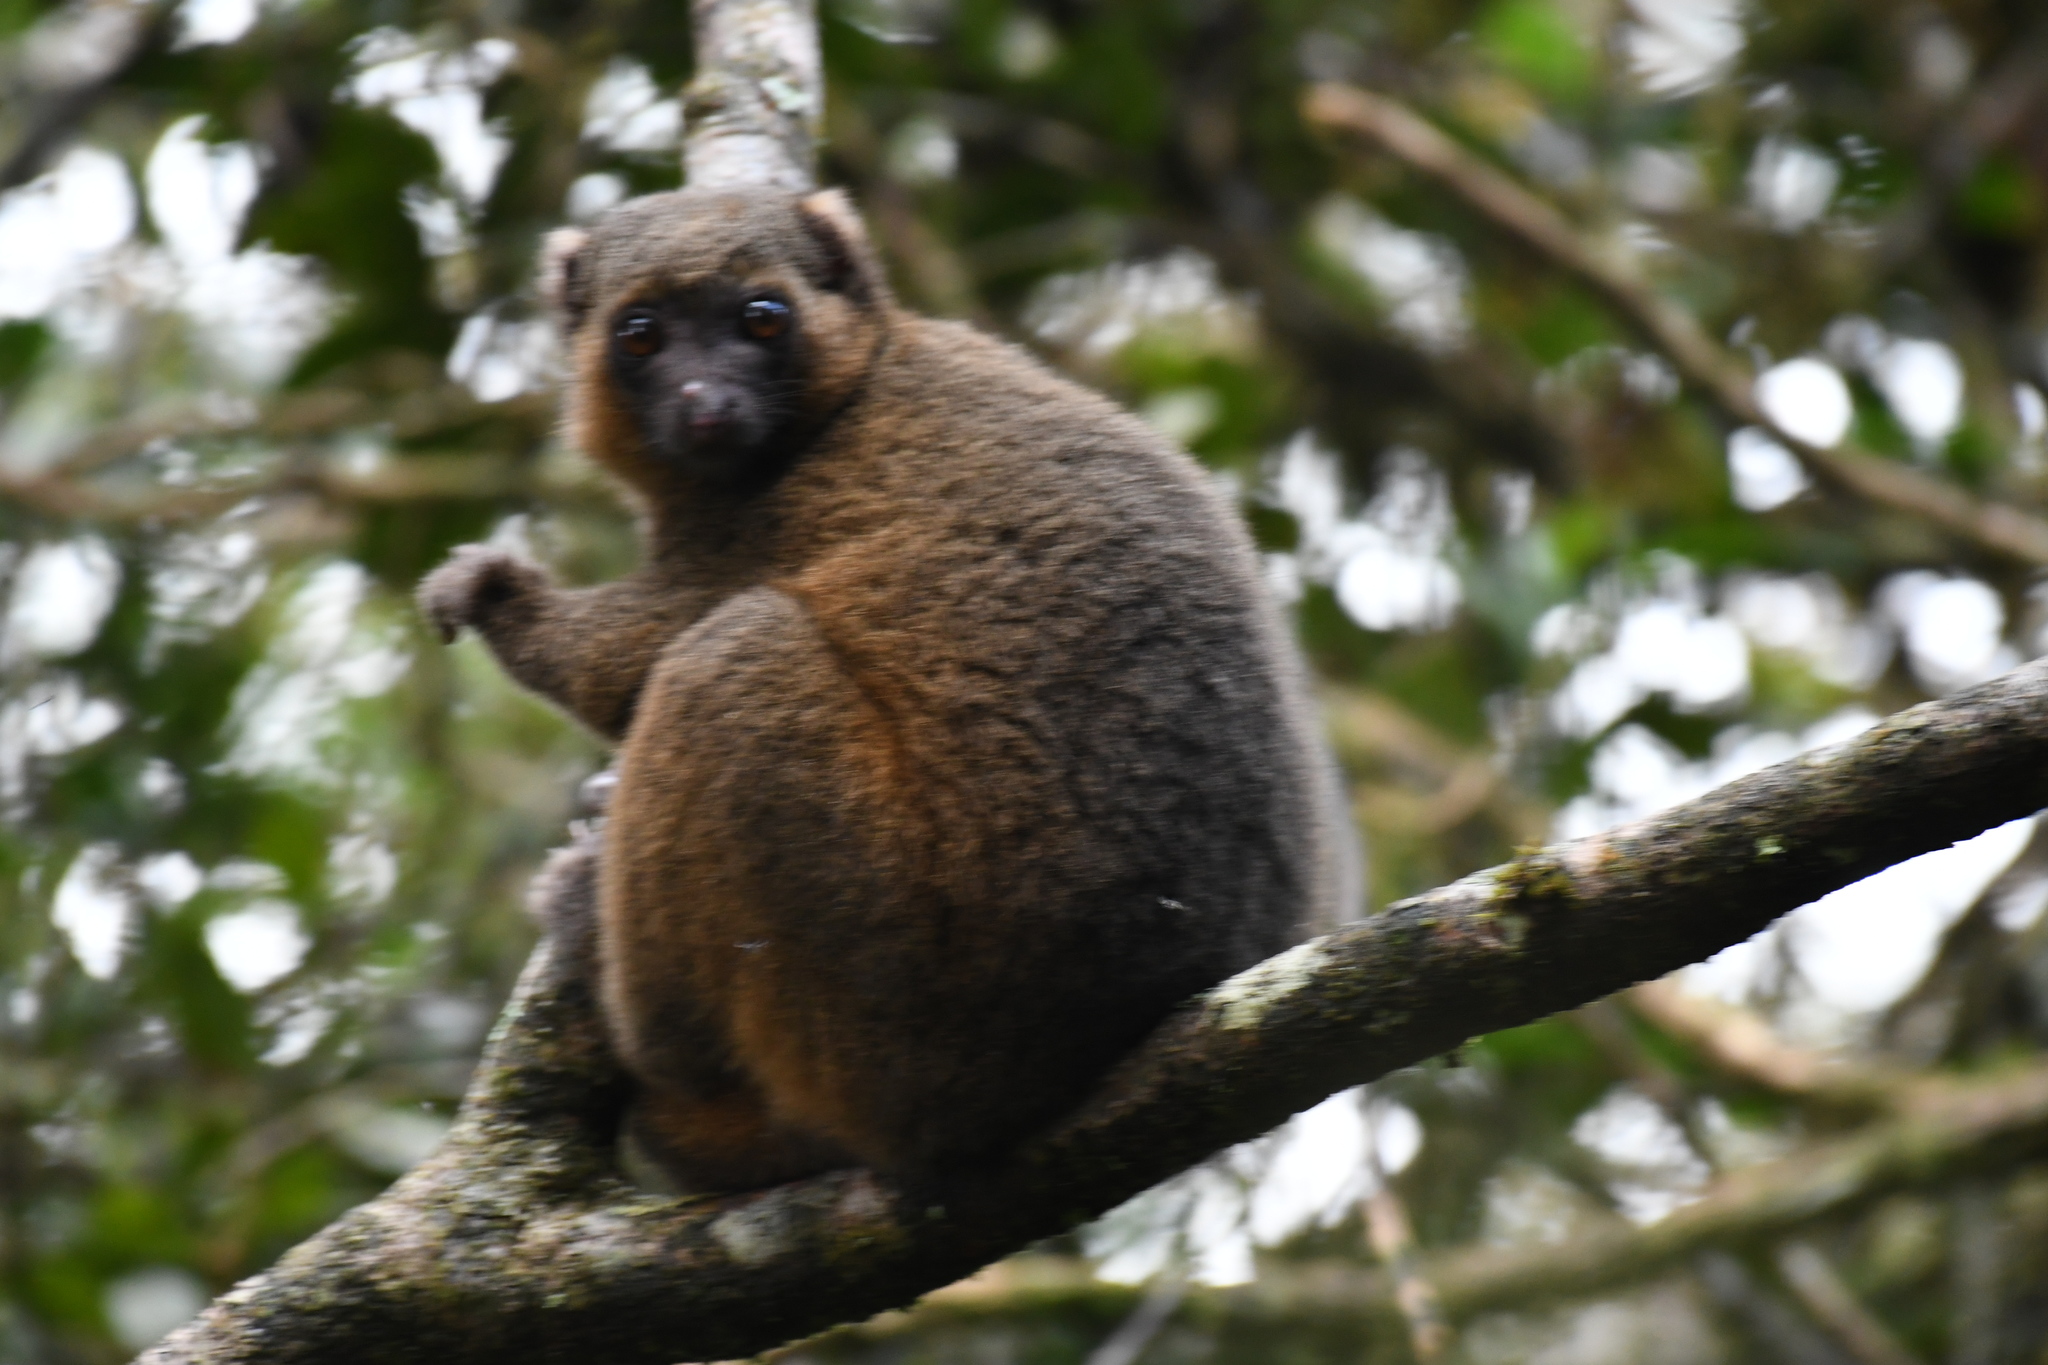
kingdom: Animalia
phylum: Chordata
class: Mammalia
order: Primates
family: Lemuridae
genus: Hapalemur
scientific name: Hapalemur aureus
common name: Golden bamboo lemur
